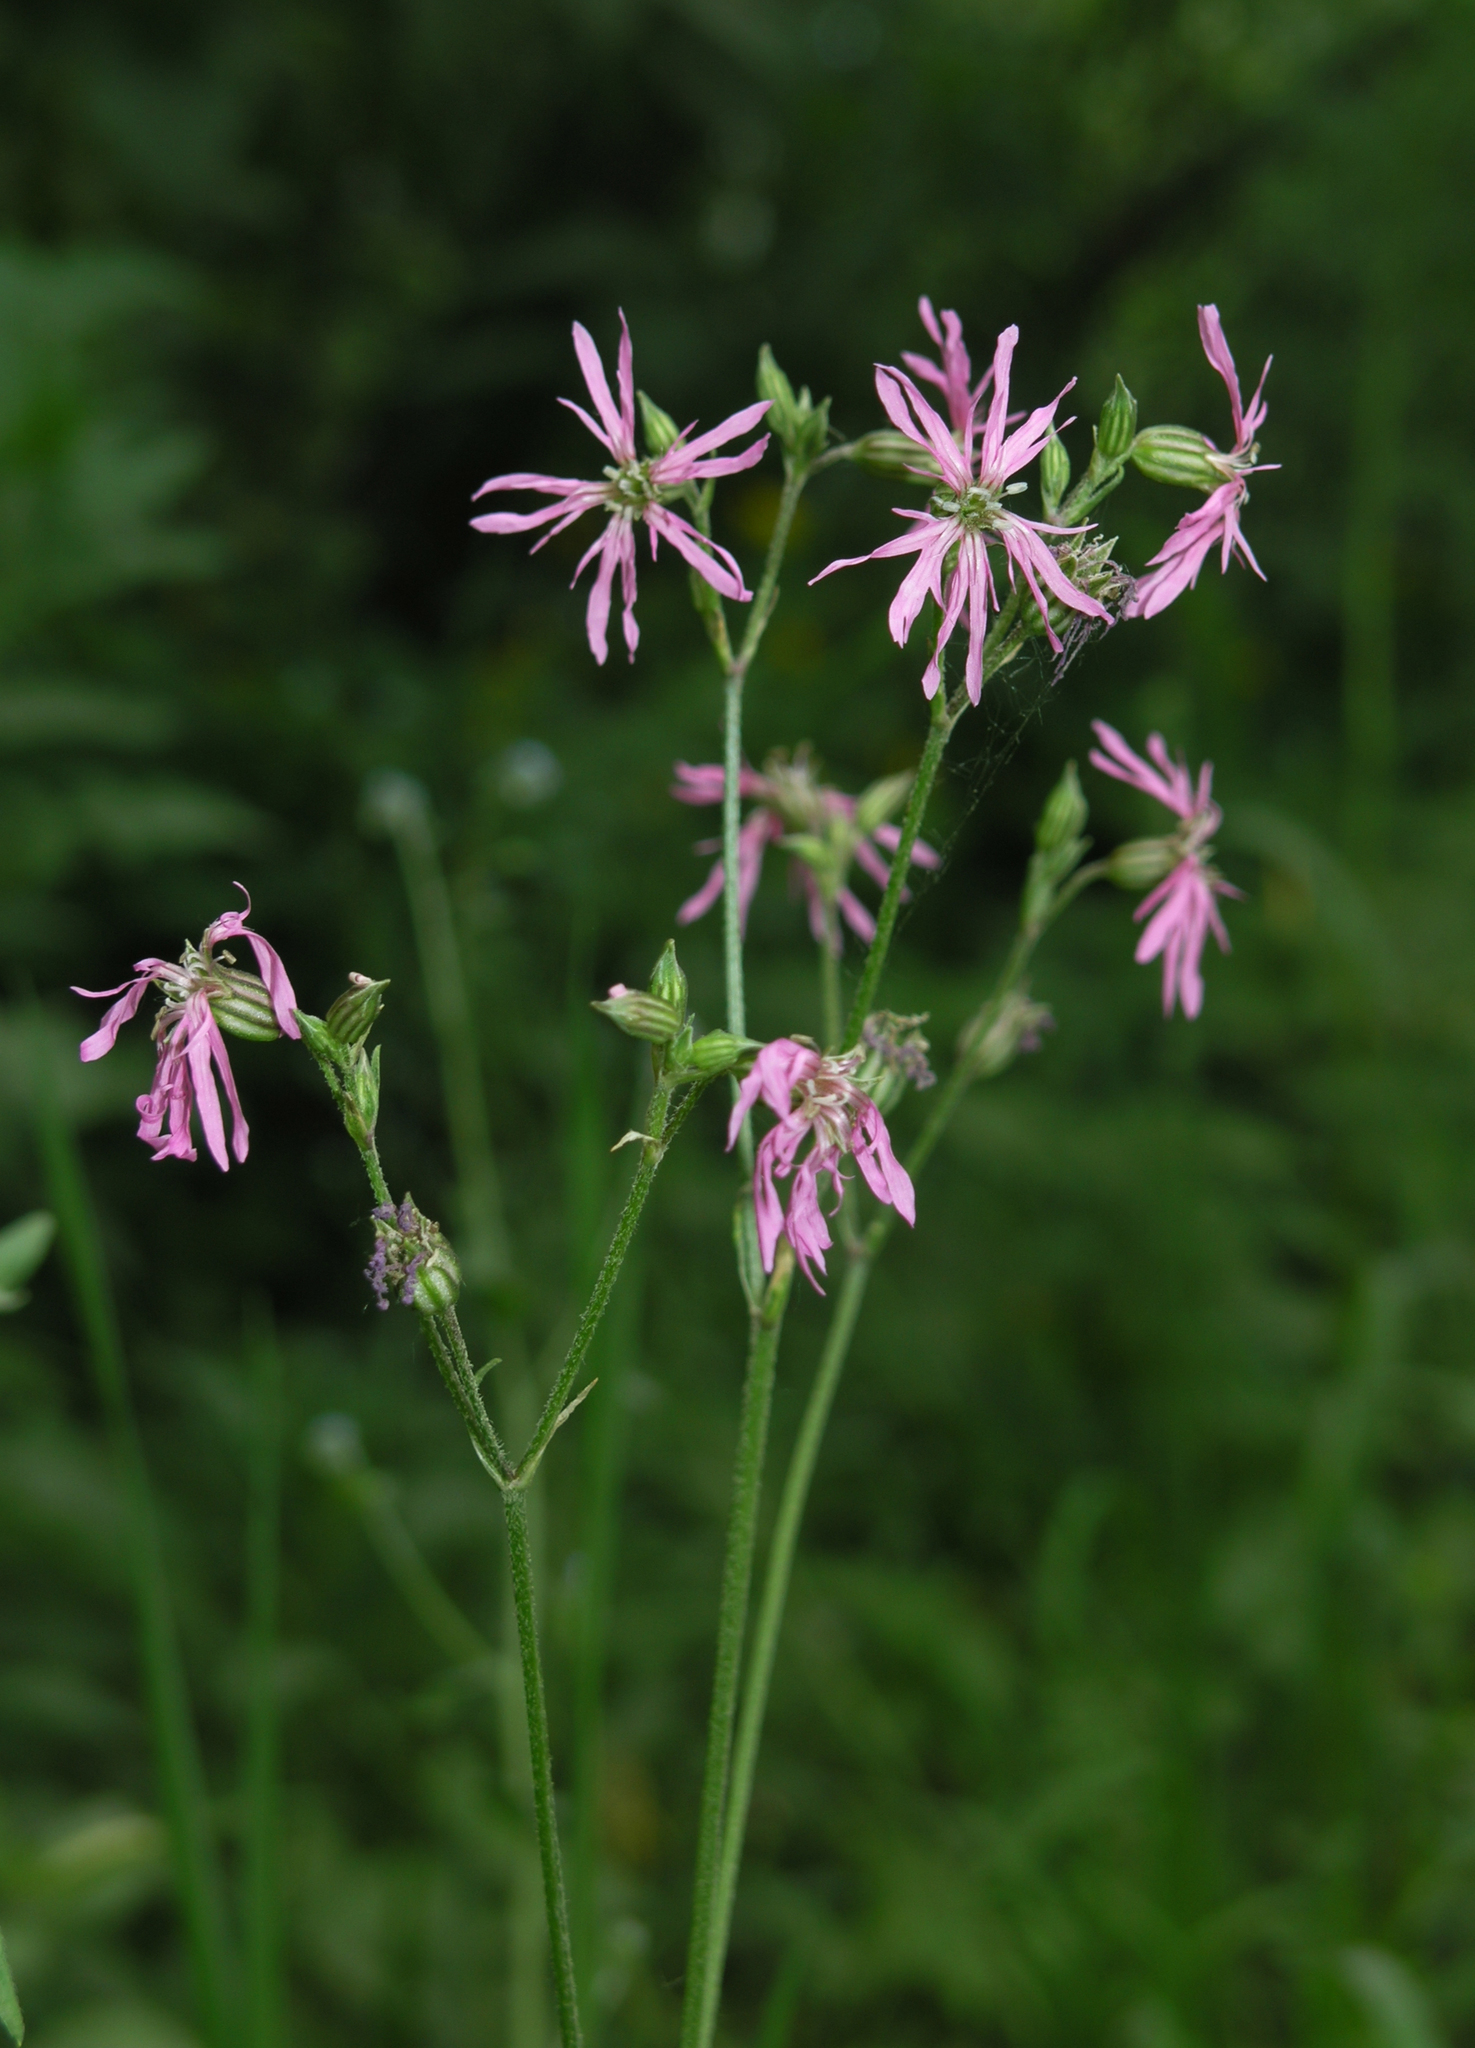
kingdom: Plantae
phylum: Tracheophyta
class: Magnoliopsida
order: Caryophyllales
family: Caryophyllaceae
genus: Silene
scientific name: Silene flos-cuculi
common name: Ragged-robin
